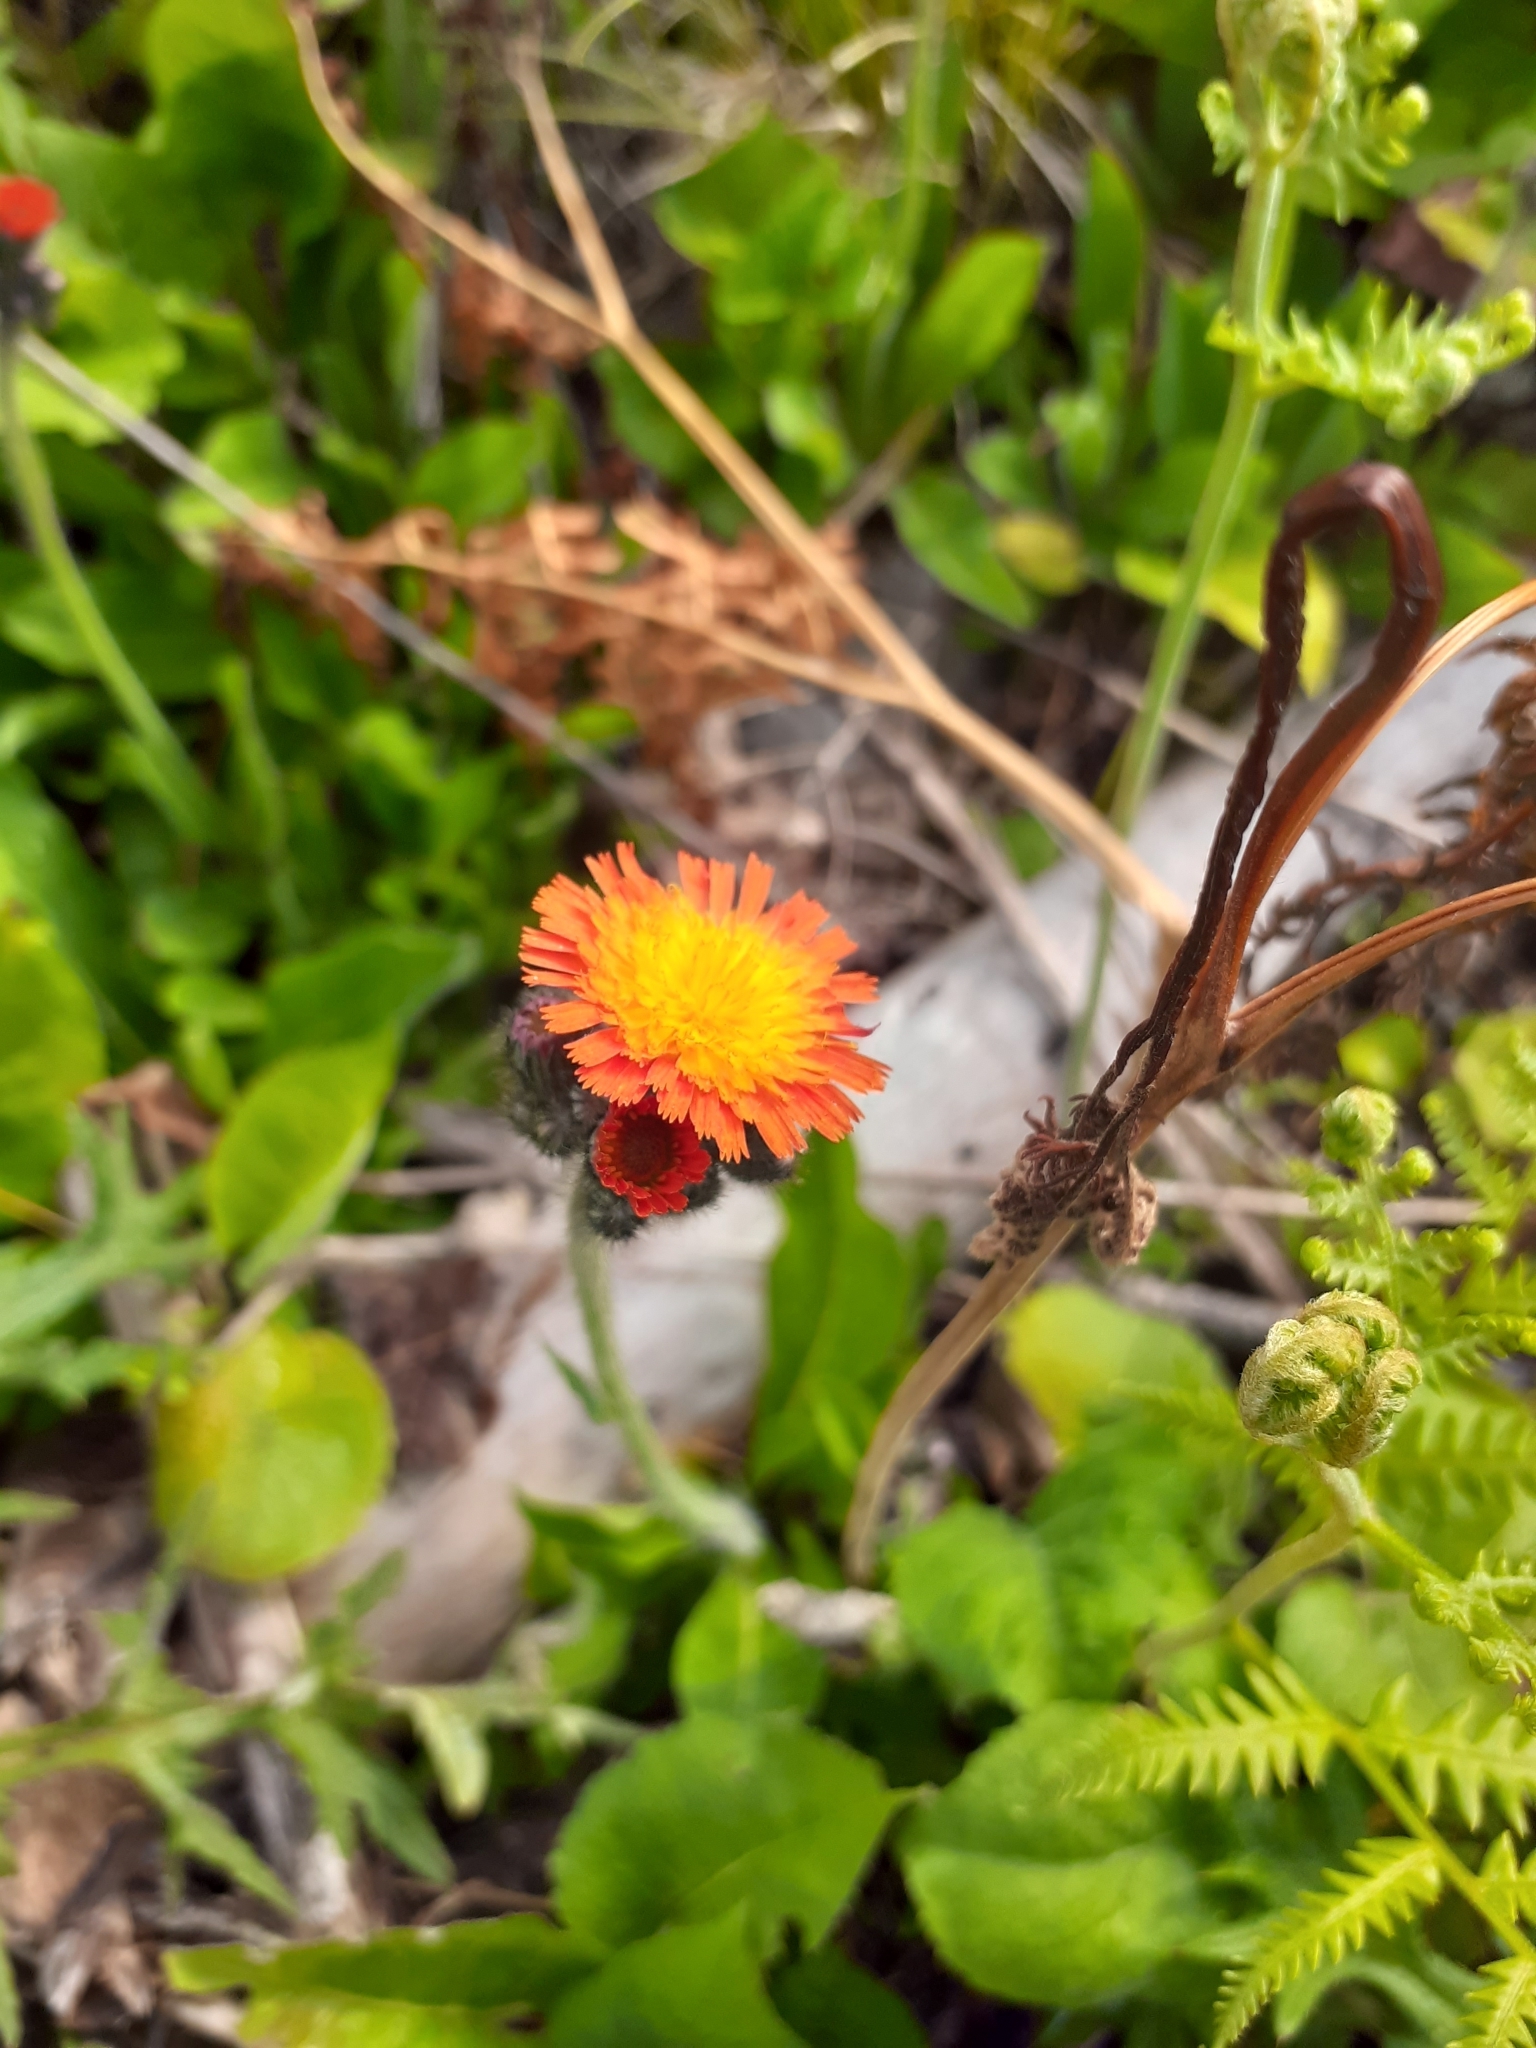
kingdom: Plantae
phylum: Tracheophyta
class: Magnoliopsida
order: Asterales
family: Asteraceae
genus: Pilosella
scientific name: Pilosella aurantiaca
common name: Fox-and-cubs
